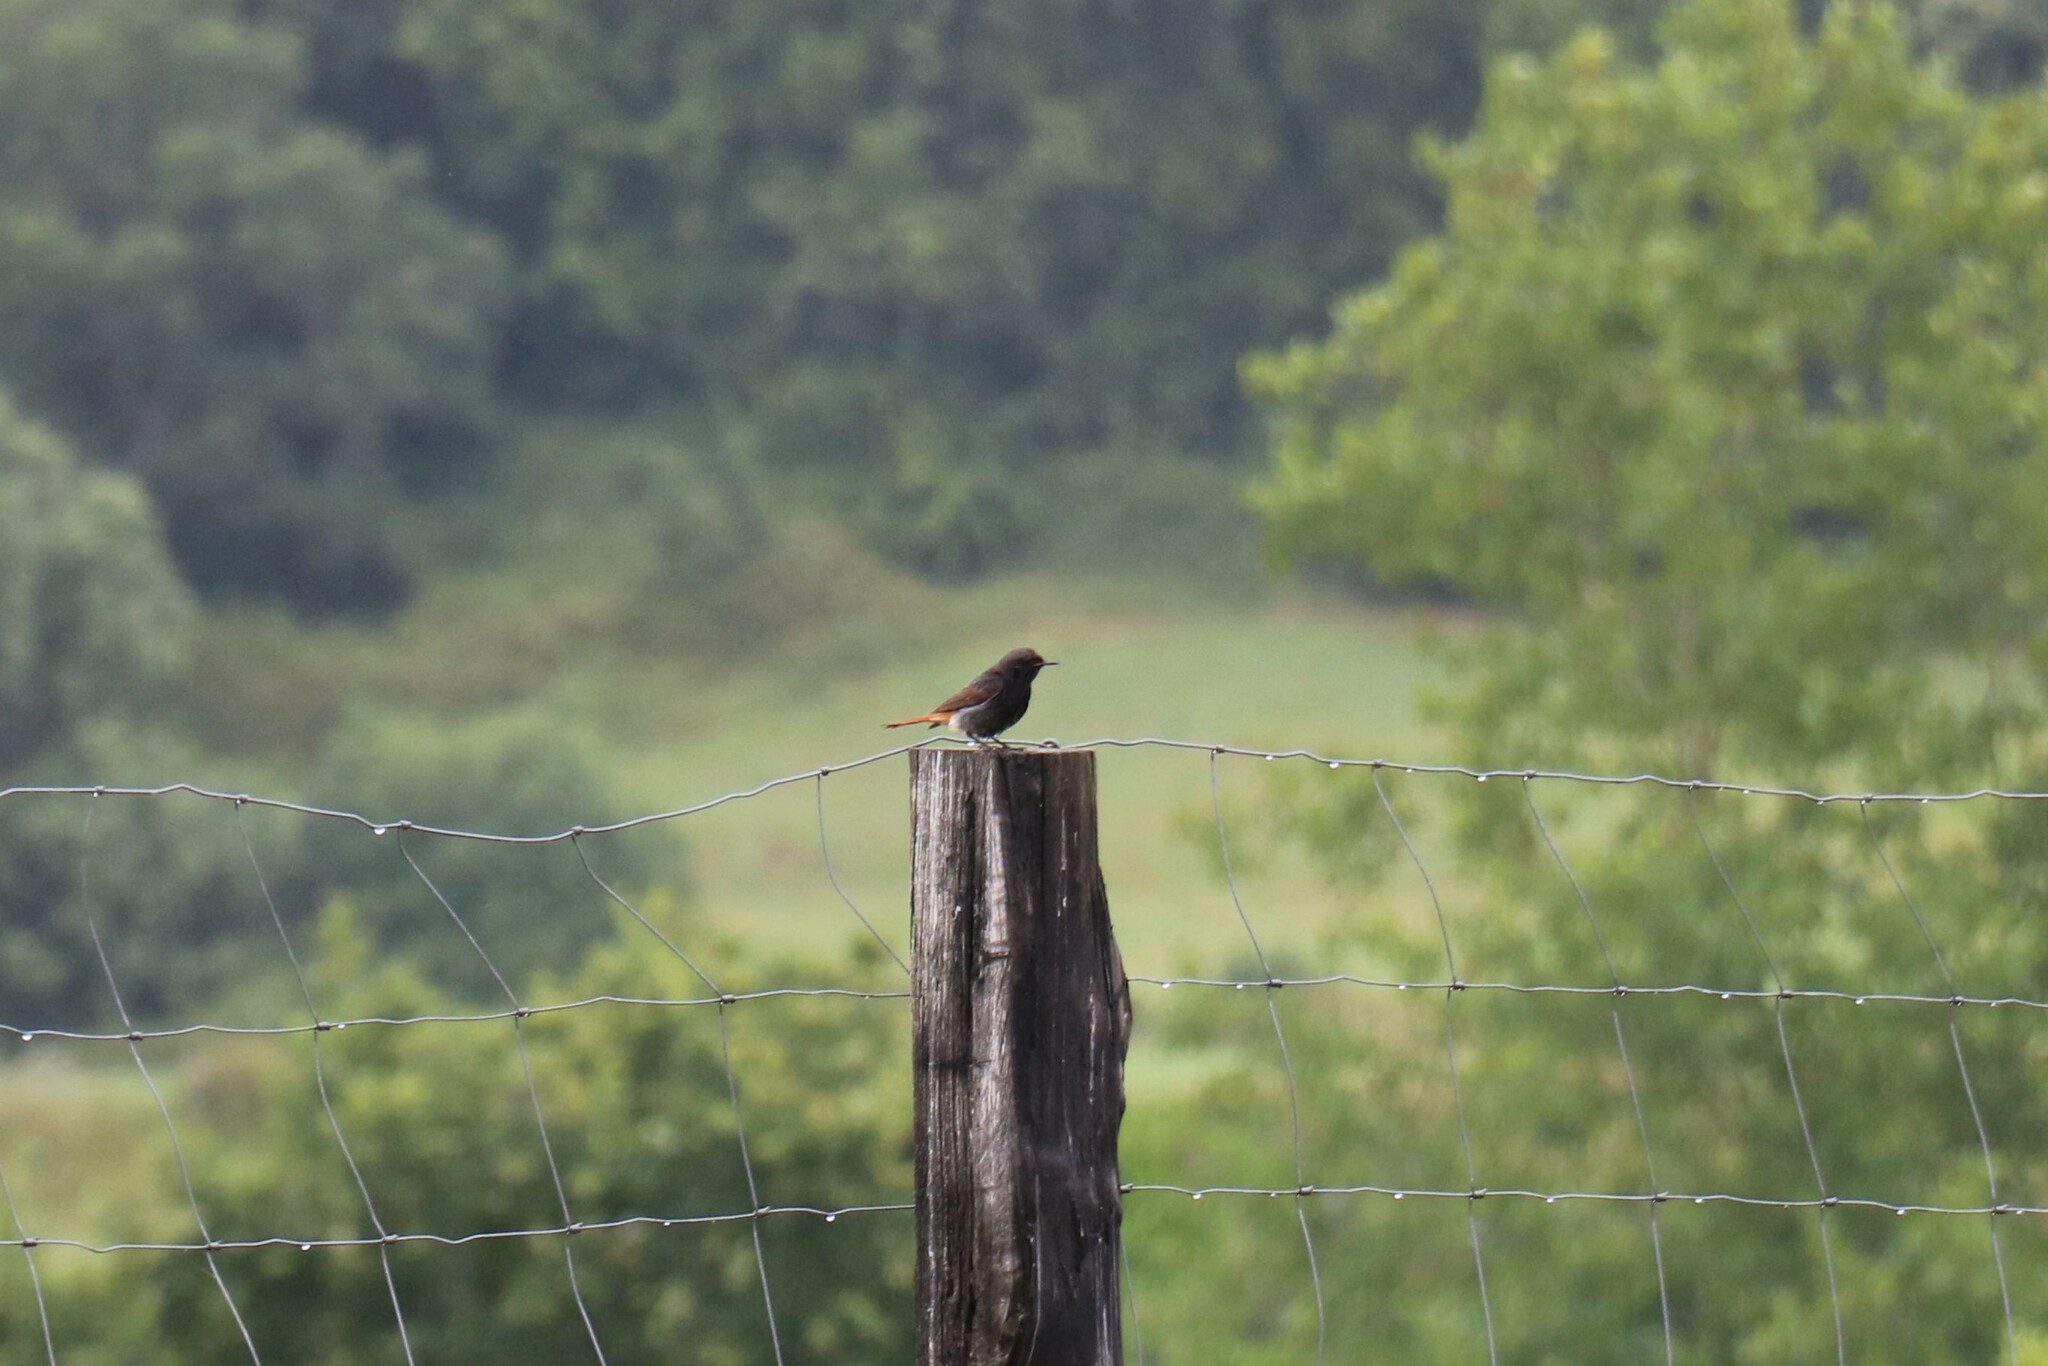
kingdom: Animalia
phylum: Chordata
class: Aves
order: Passeriformes
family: Muscicapidae
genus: Phoenicurus
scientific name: Phoenicurus ochruros
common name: Black redstart
